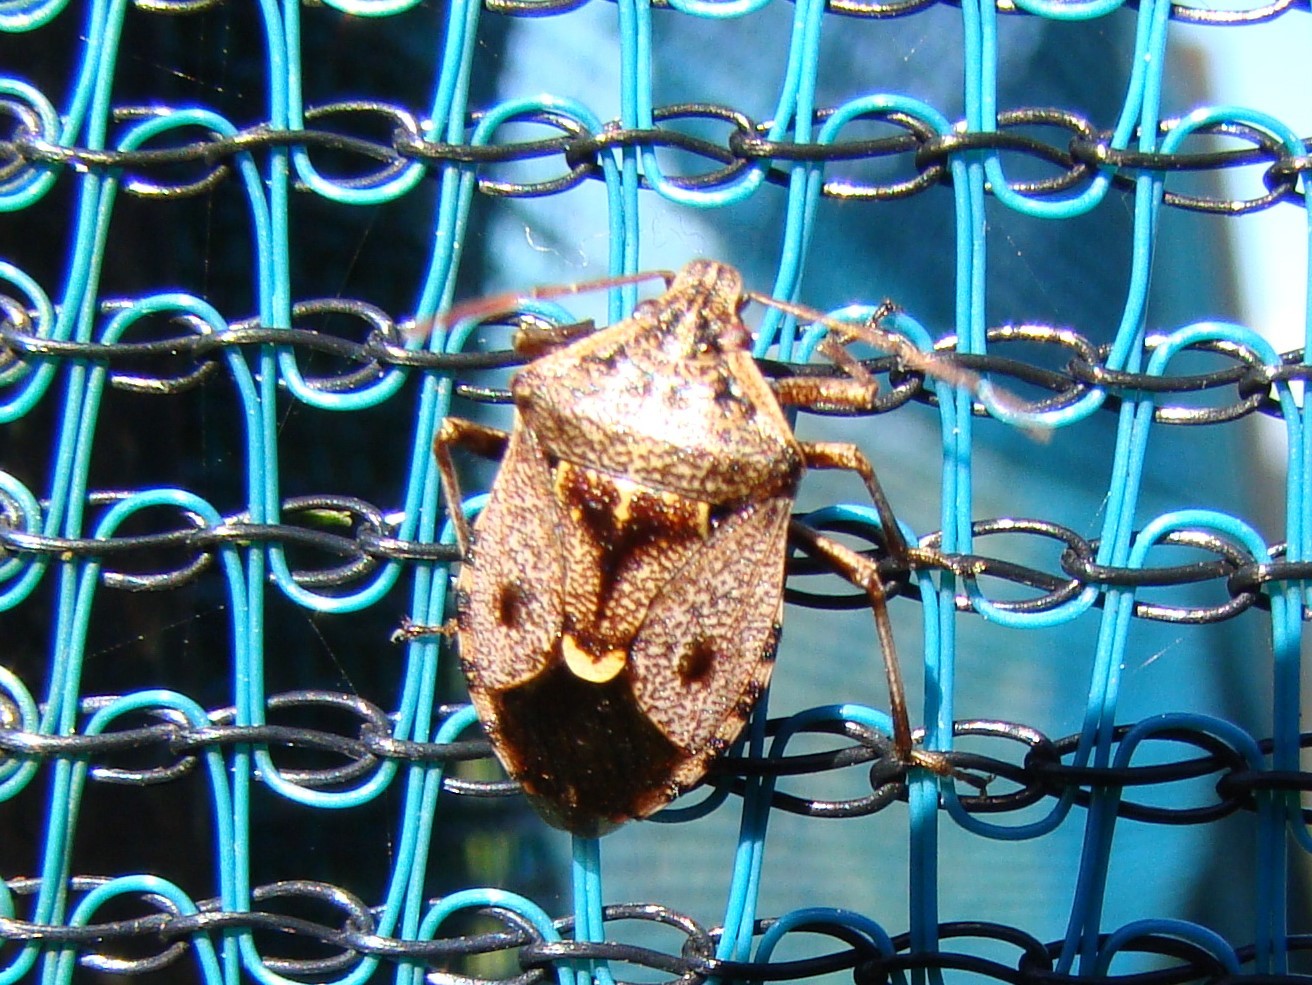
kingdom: Animalia
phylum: Arthropoda
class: Insecta
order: Hemiptera
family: Pentatomidae
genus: Cermatulus
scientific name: Cermatulus nasalis
